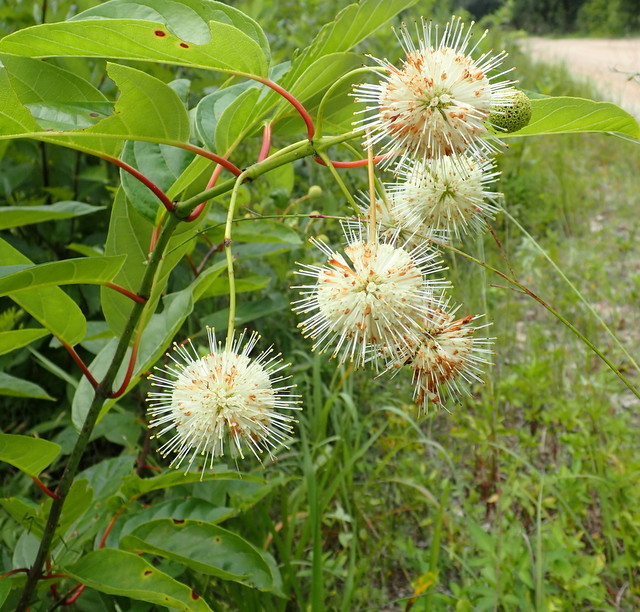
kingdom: Plantae
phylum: Tracheophyta
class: Magnoliopsida
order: Gentianales
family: Rubiaceae
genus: Cephalanthus
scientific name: Cephalanthus occidentalis
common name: Button-willow
